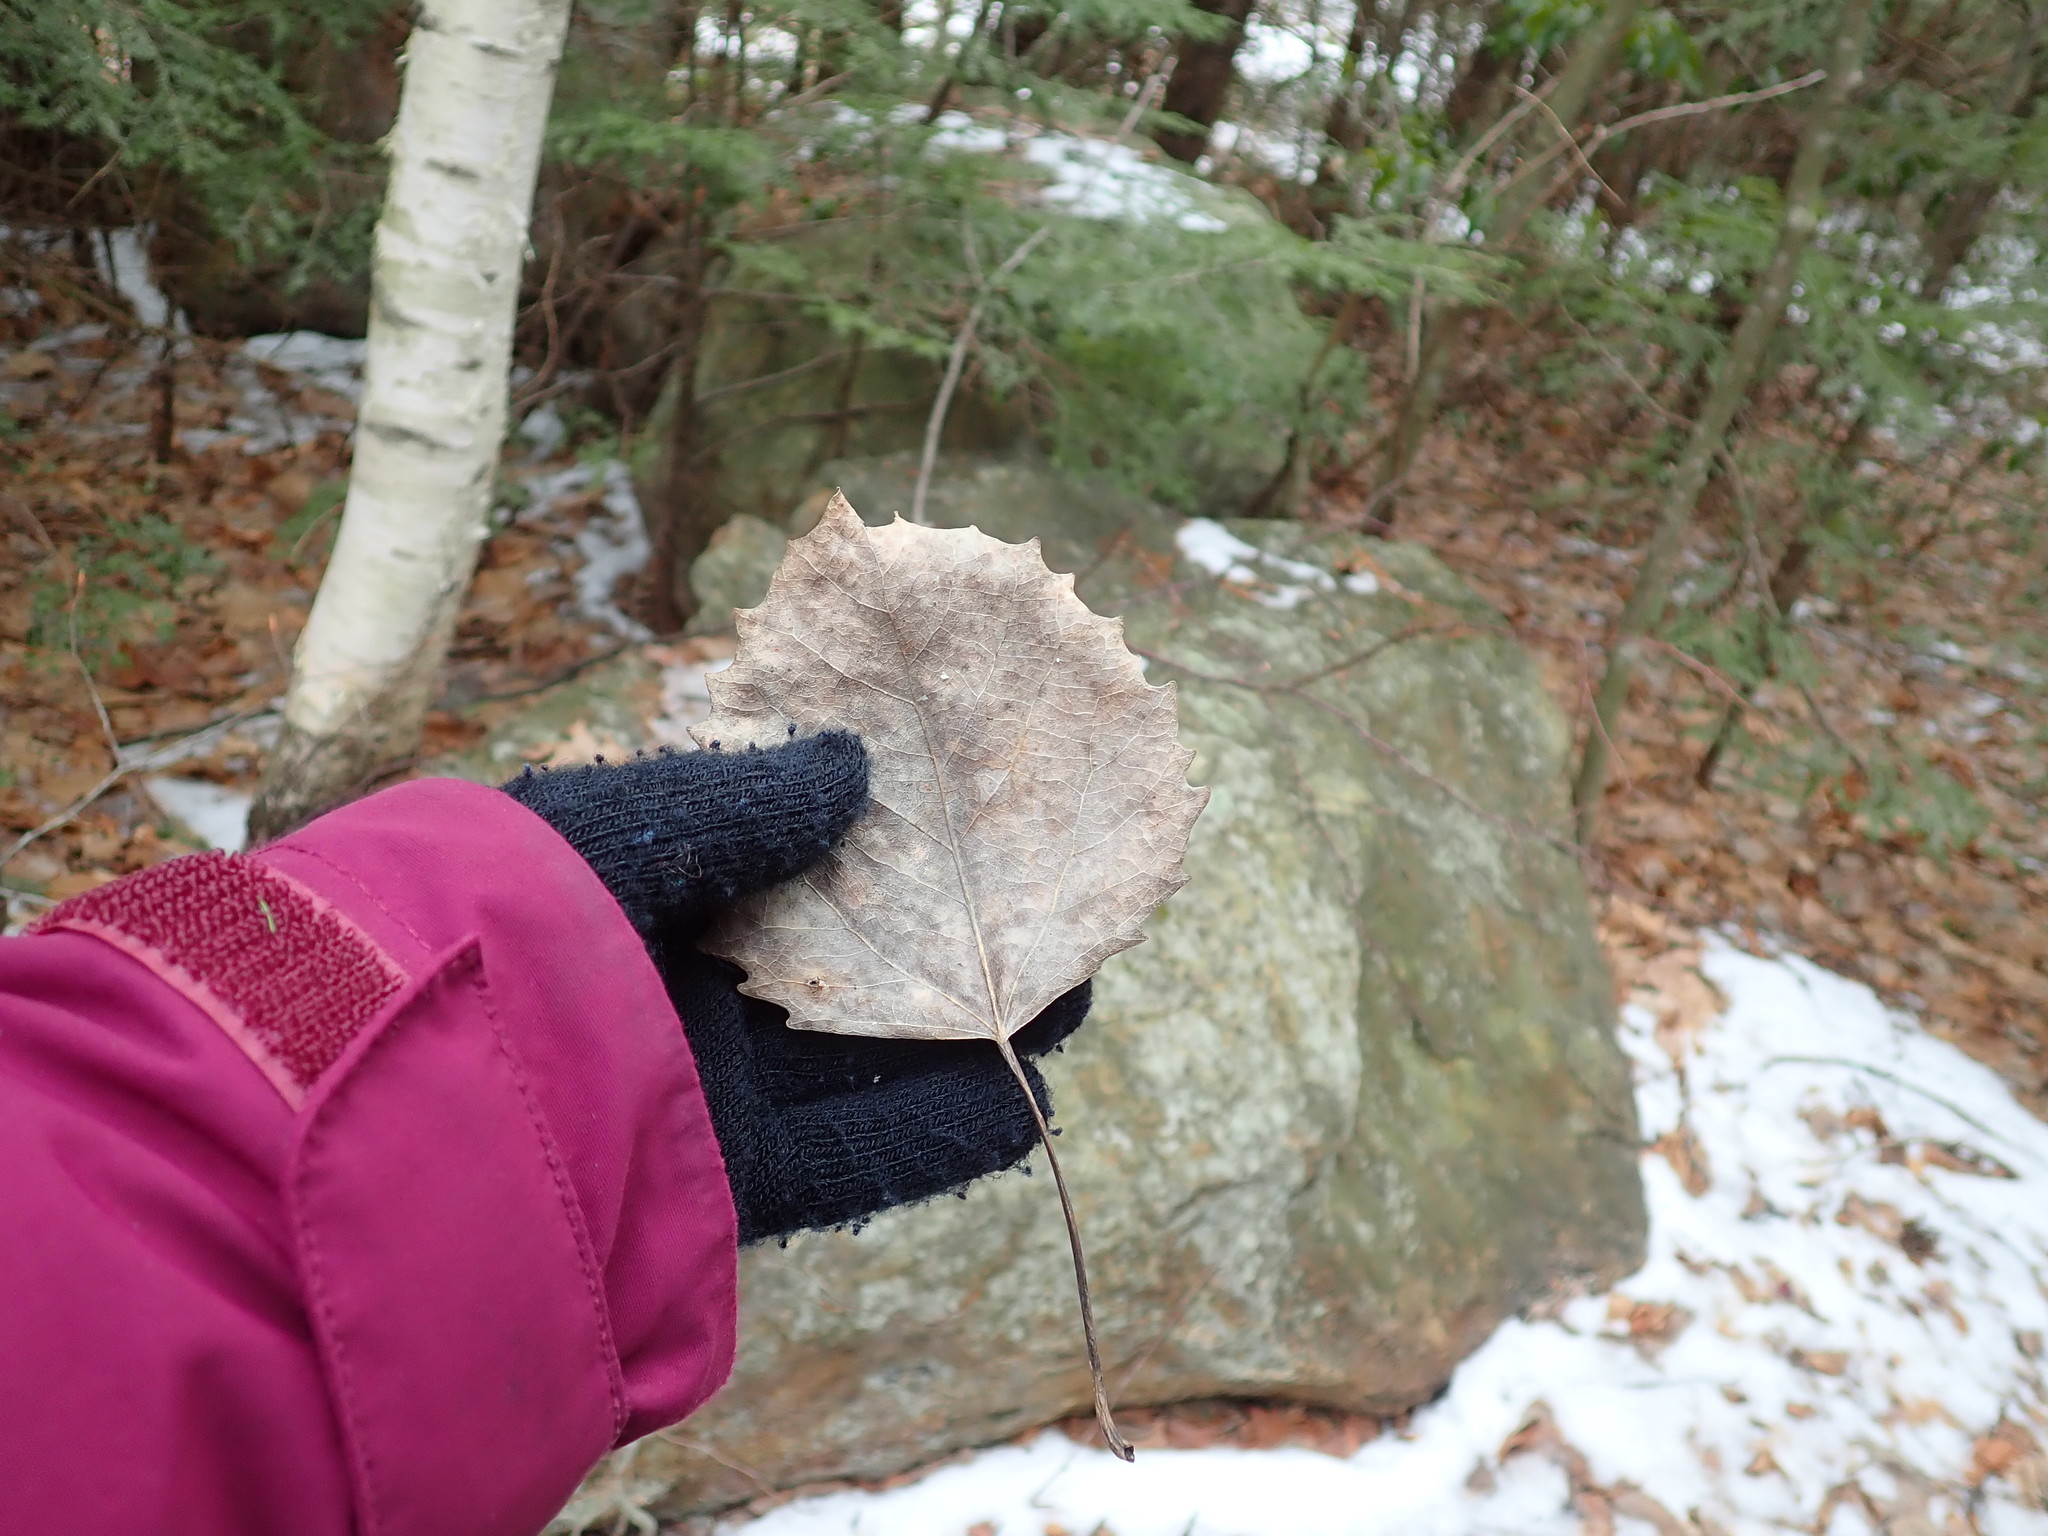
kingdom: Plantae
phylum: Tracheophyta
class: Magnoliopsida
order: Malpighiales
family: Salicaceae
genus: Populus
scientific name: Populus grandidentata
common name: Bigtooth aspen
